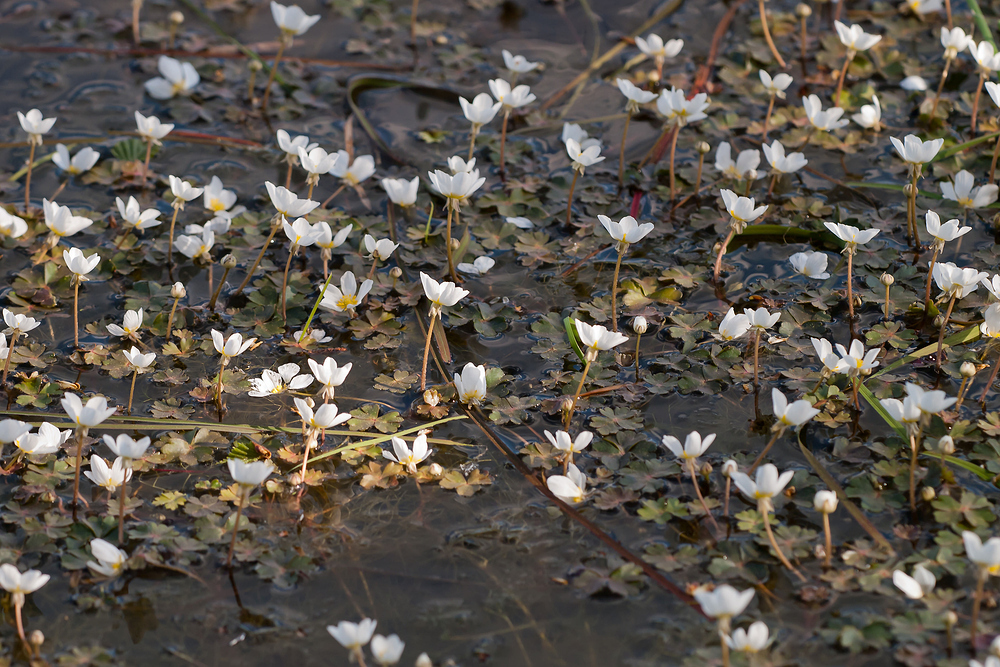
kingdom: Plantae
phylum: Tracheophyta
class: Magnoliopsida
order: Ranunculales
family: Ranunculaceae
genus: Ranunculus
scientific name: Ranunculus ololeucos
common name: White-flowered buttercup
